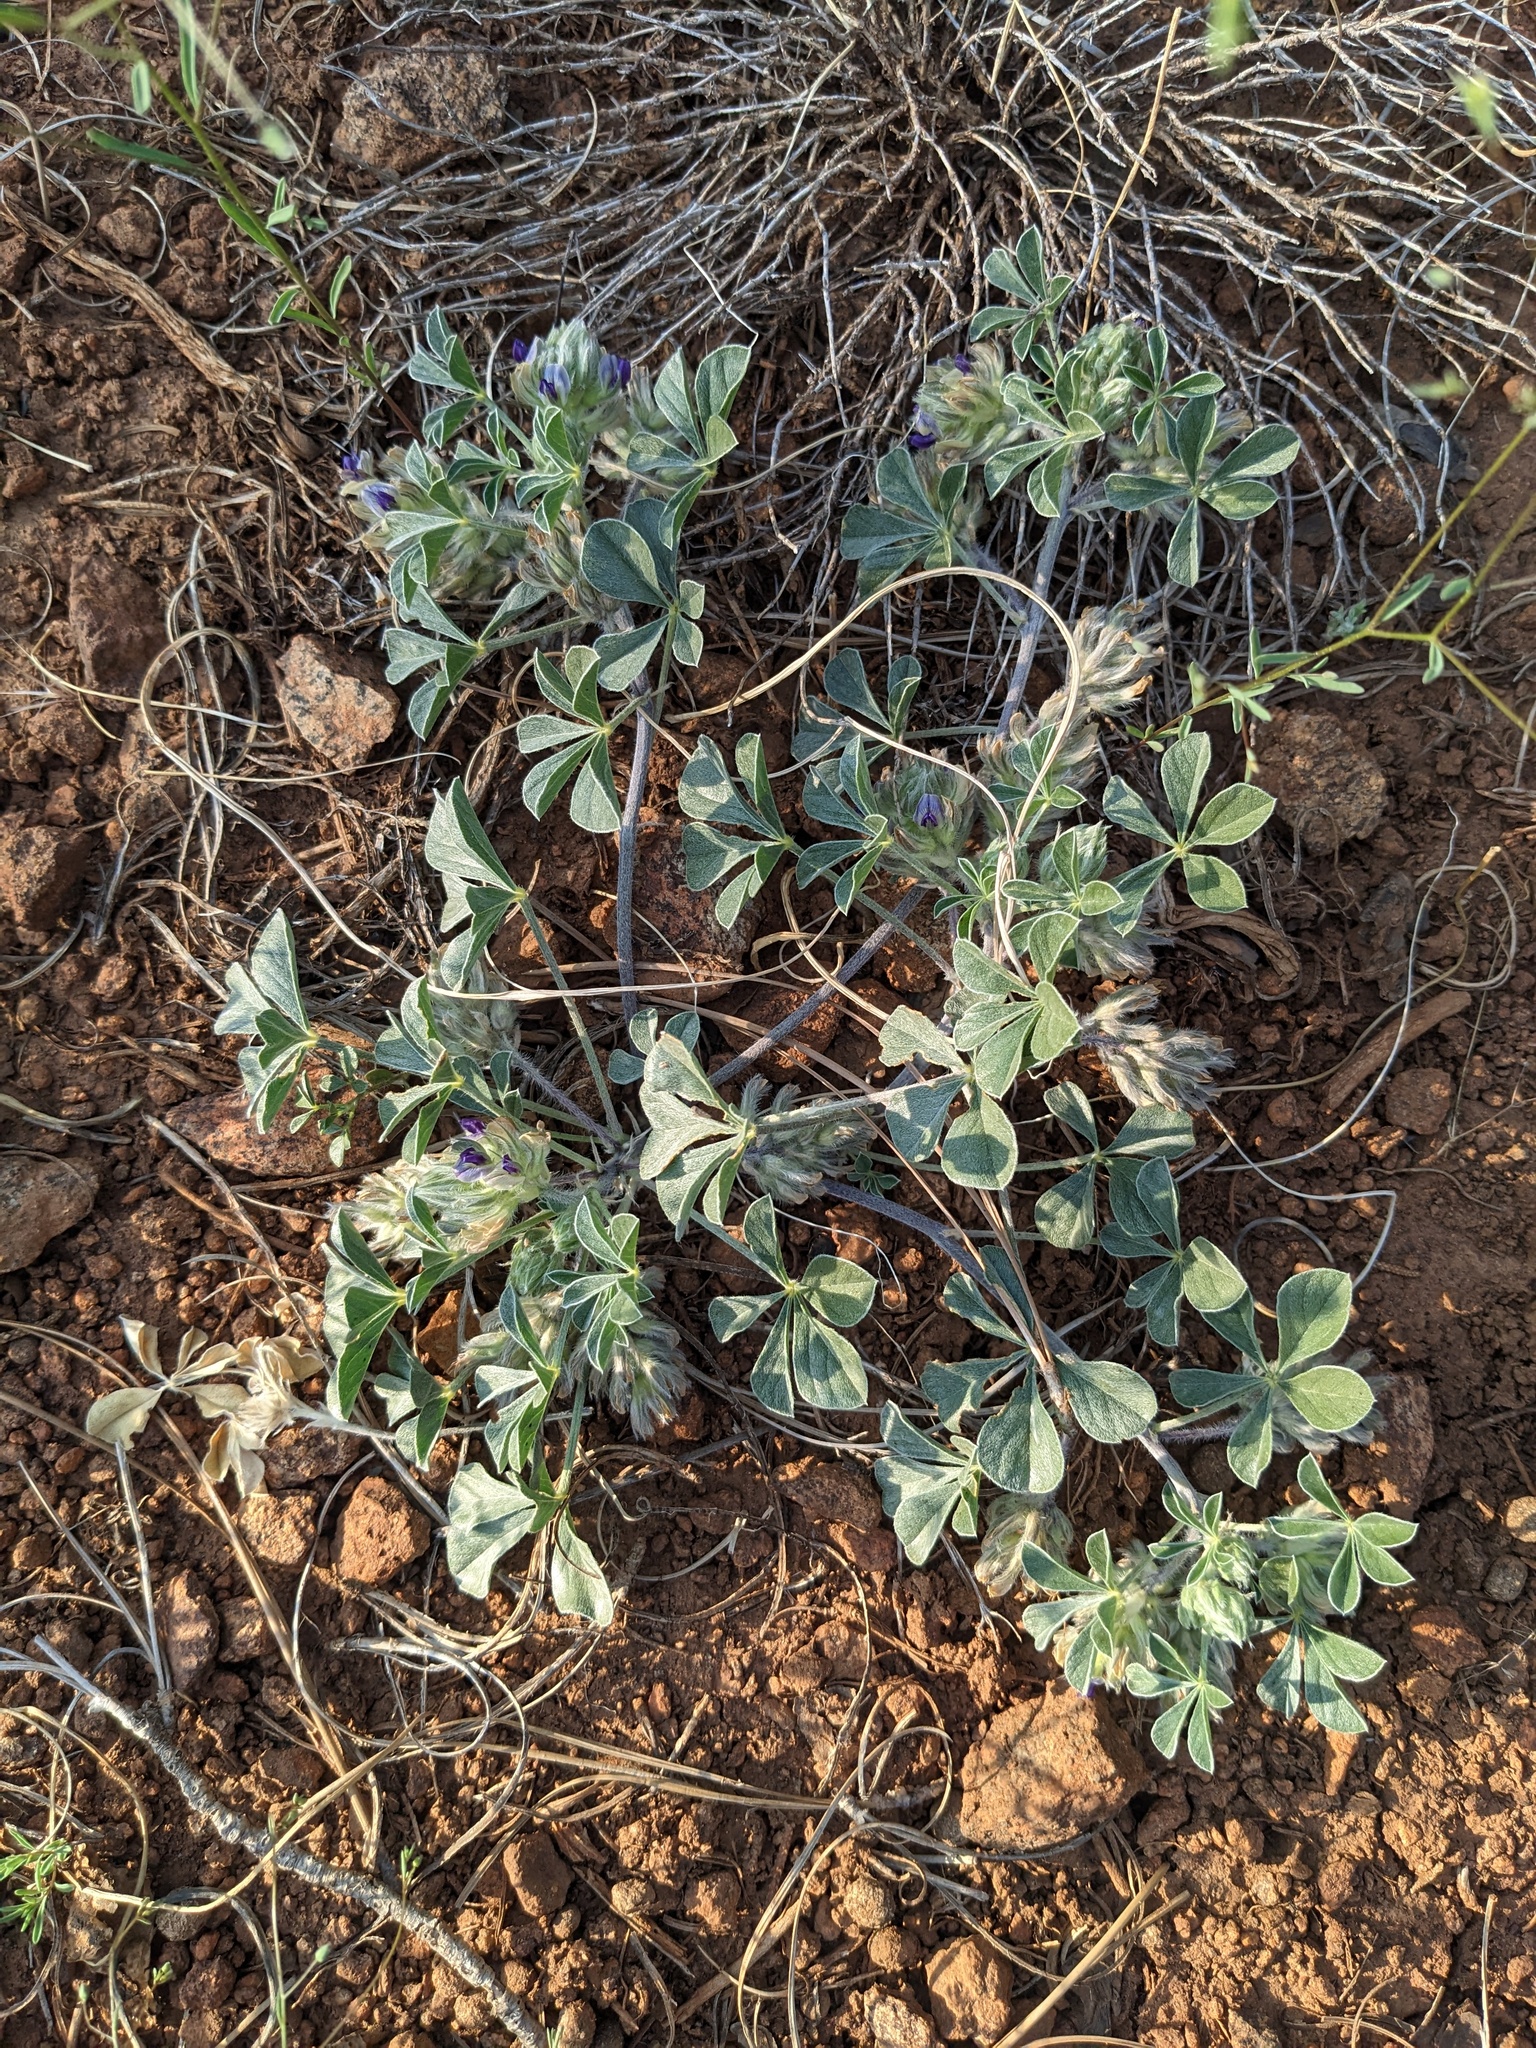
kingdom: Plantae
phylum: Tracheophyta
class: Magnoliopsida
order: Fabales
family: Fabaceae
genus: Pediomelum
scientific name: Pediomelum californicum
